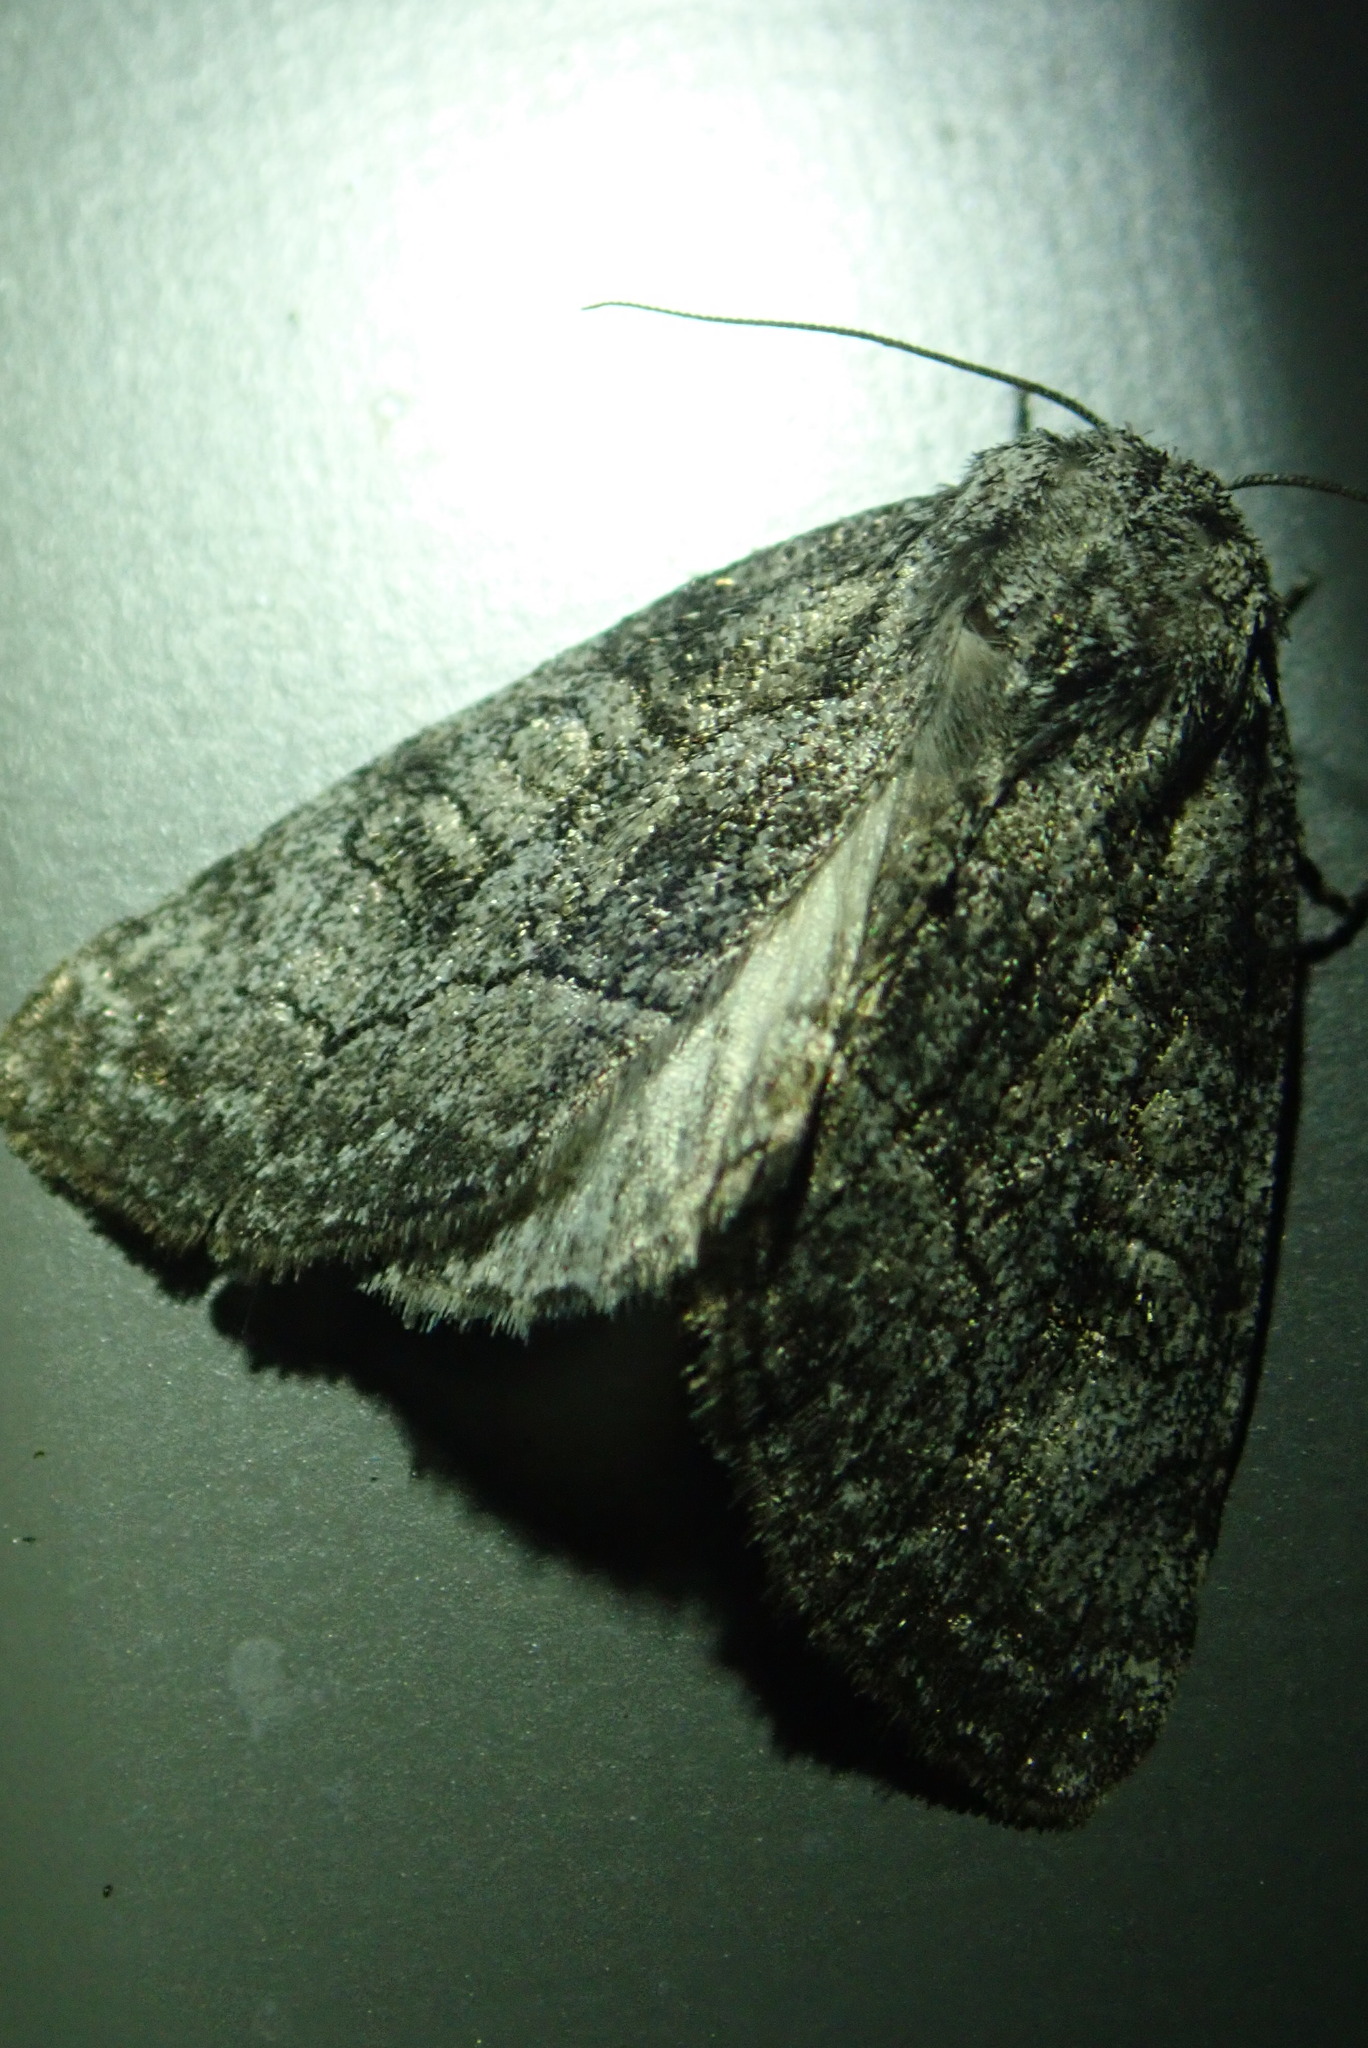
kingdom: Animalia
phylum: Arthropoda
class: Insecta
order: Lepidoptera
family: Noctuidae
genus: Raphia
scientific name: Raphia frater
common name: Brother
